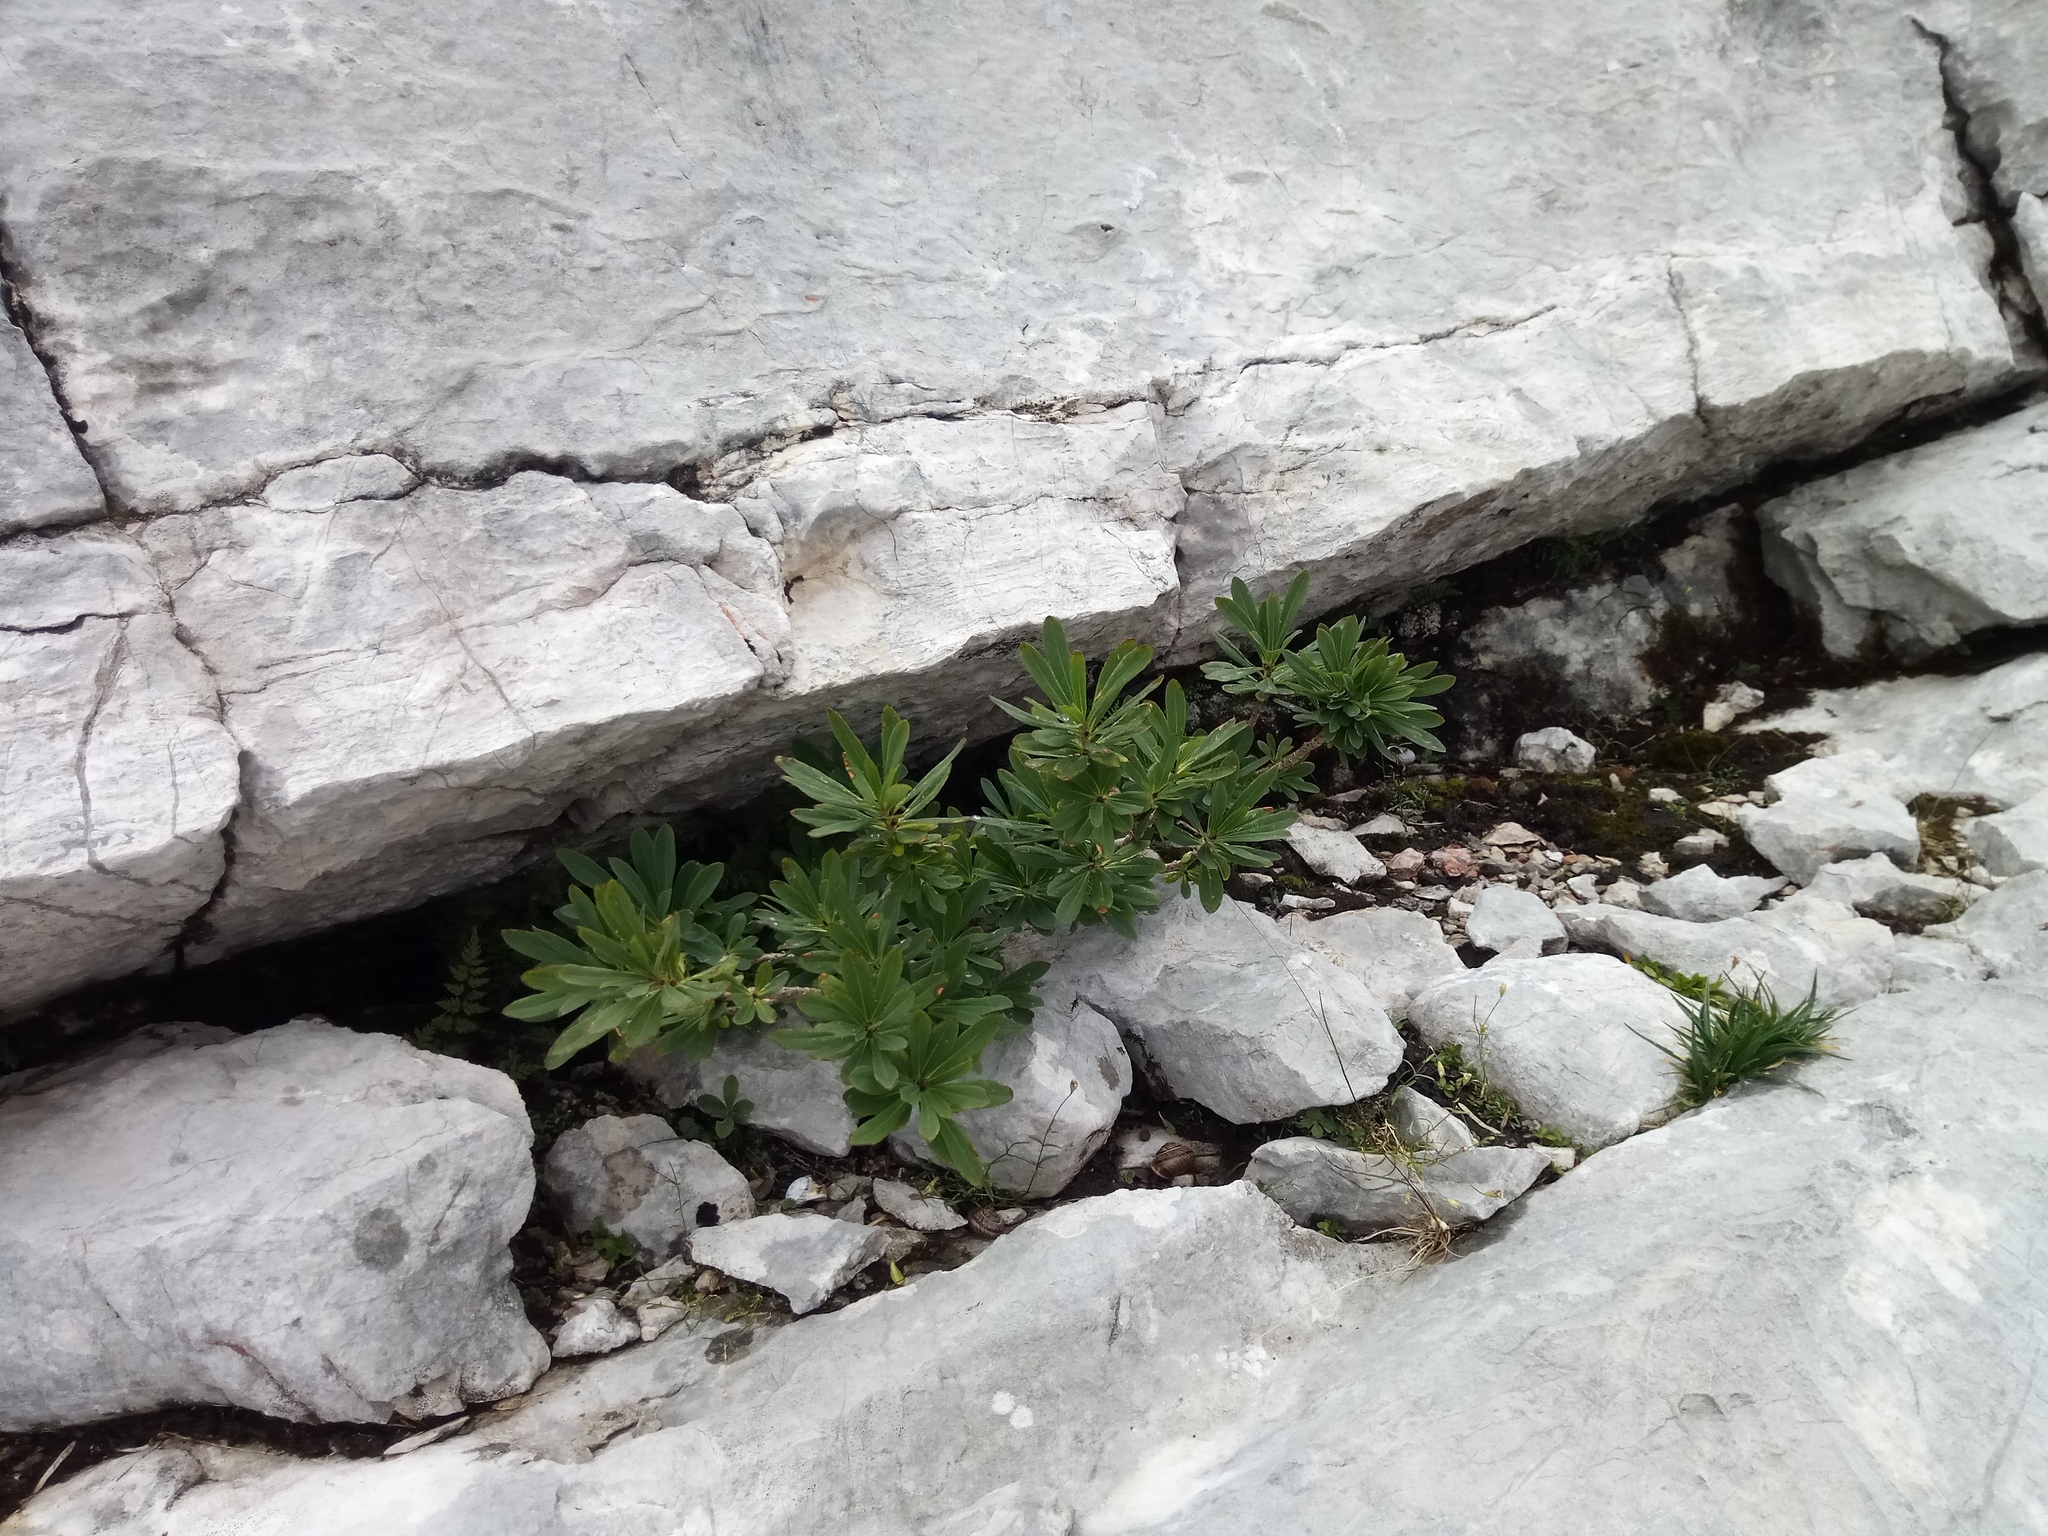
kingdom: Plantae
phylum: Tracheophyta
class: Magnoliopsida
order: Malvales
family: Thymelaeaceae
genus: Daphne
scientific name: Daphne mezereum
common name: Mezereon
